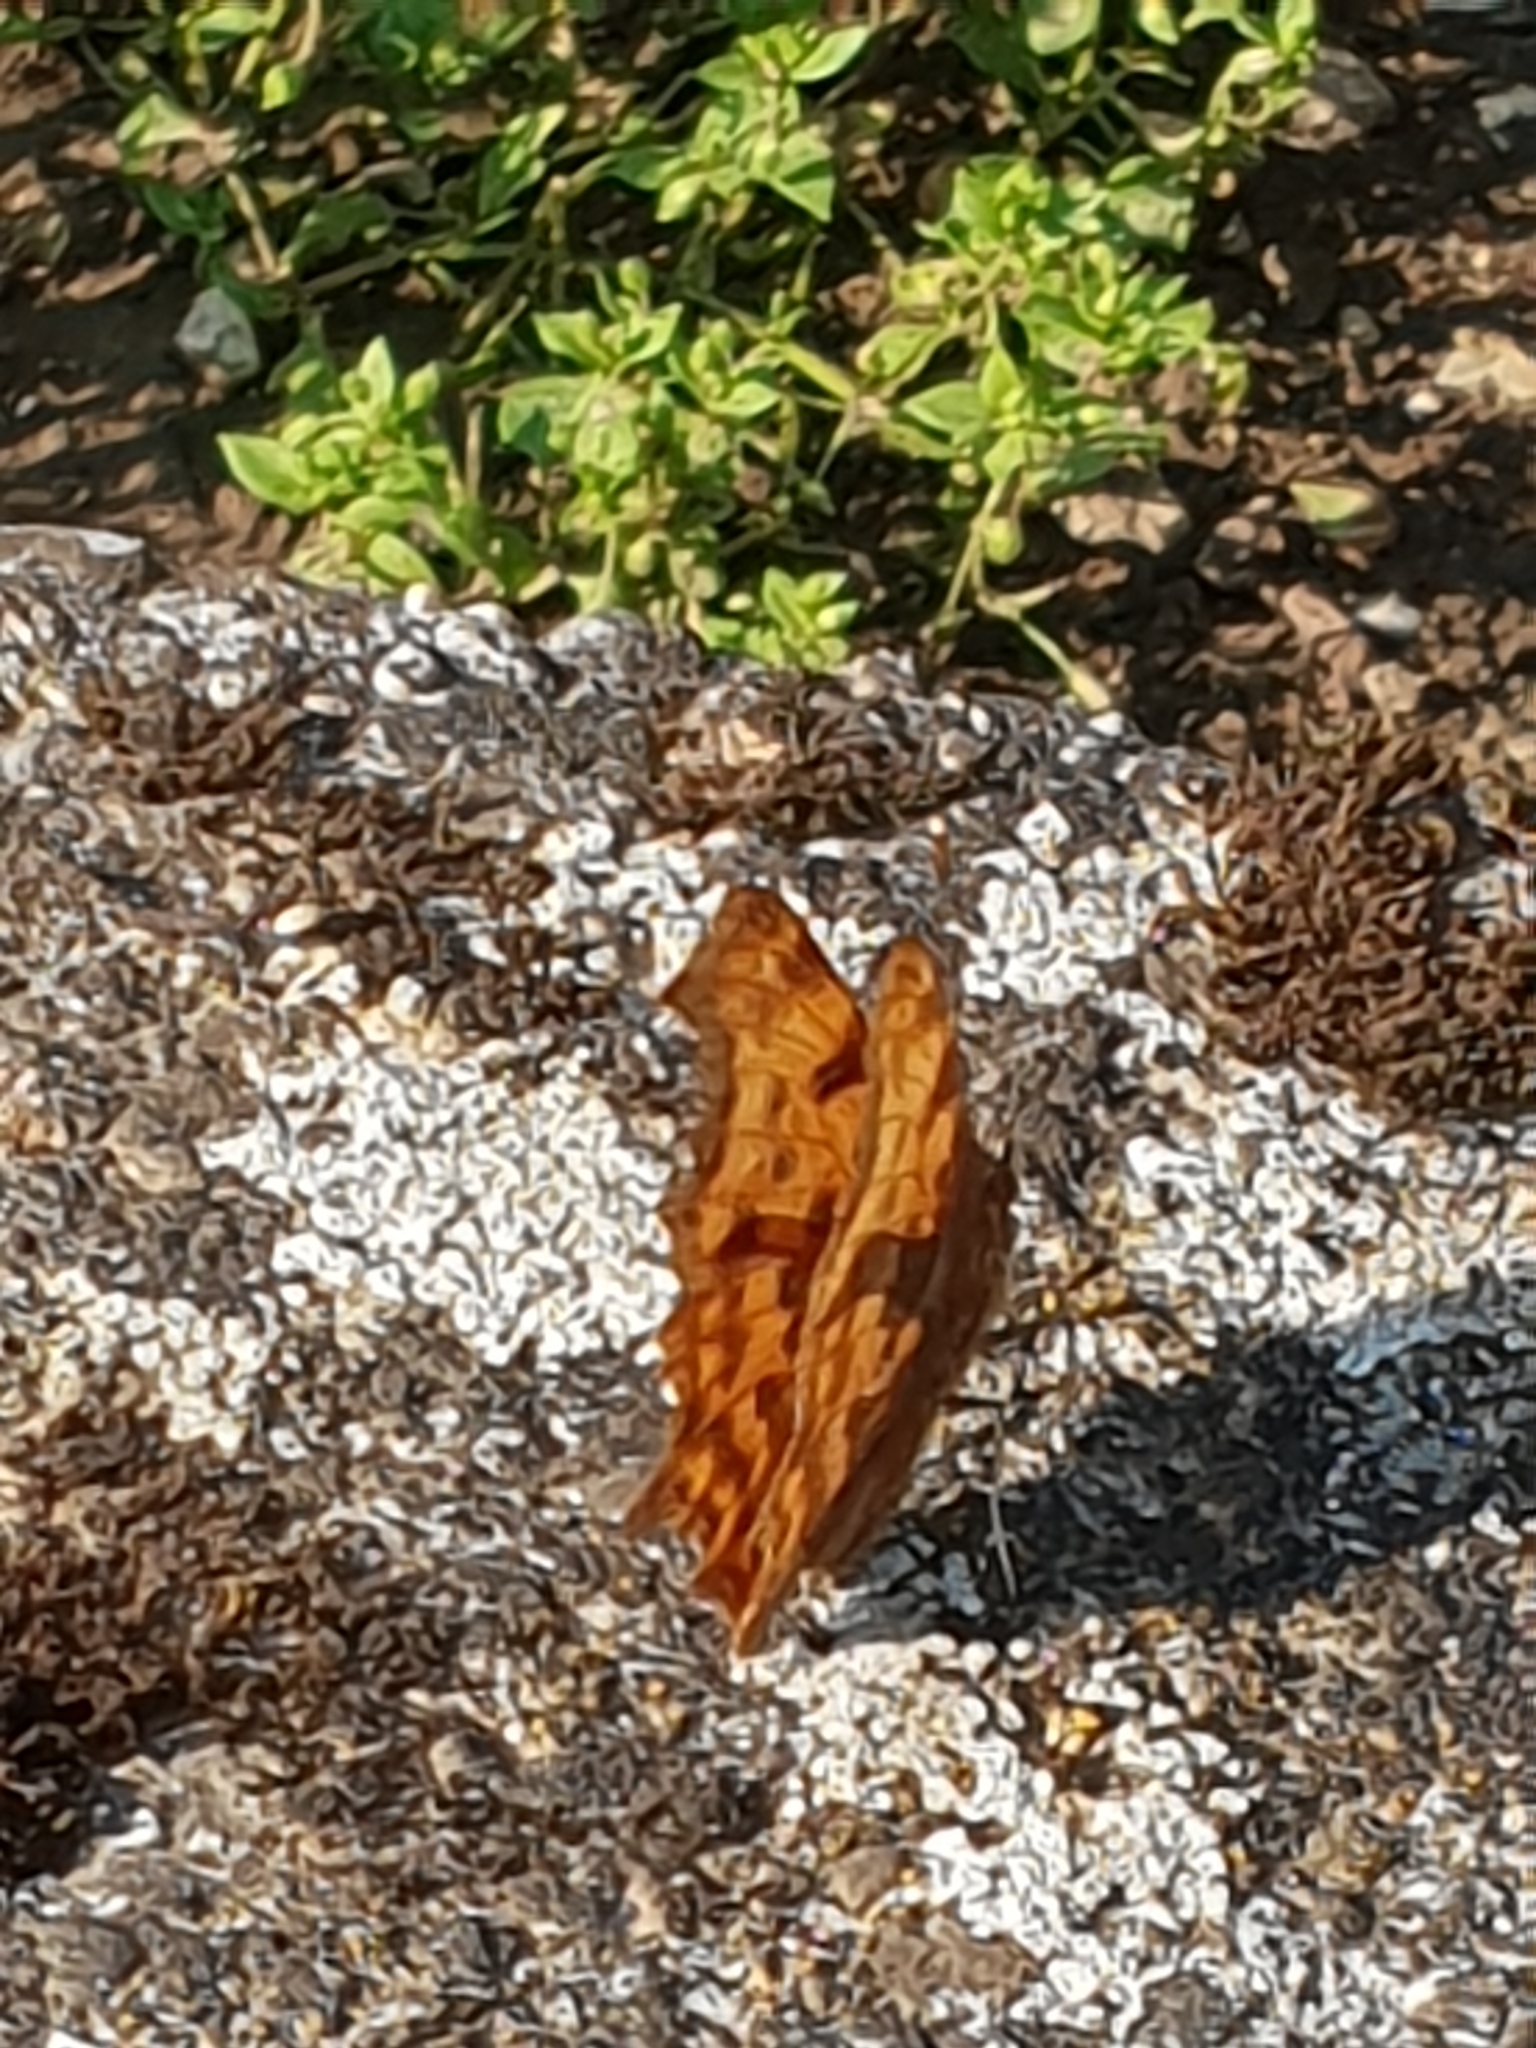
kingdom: Animalia
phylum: Arthropoda
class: Insecta
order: Lepidoptera
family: Nymphalidae
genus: Polygonia
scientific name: Polygonia c-album
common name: Comma
